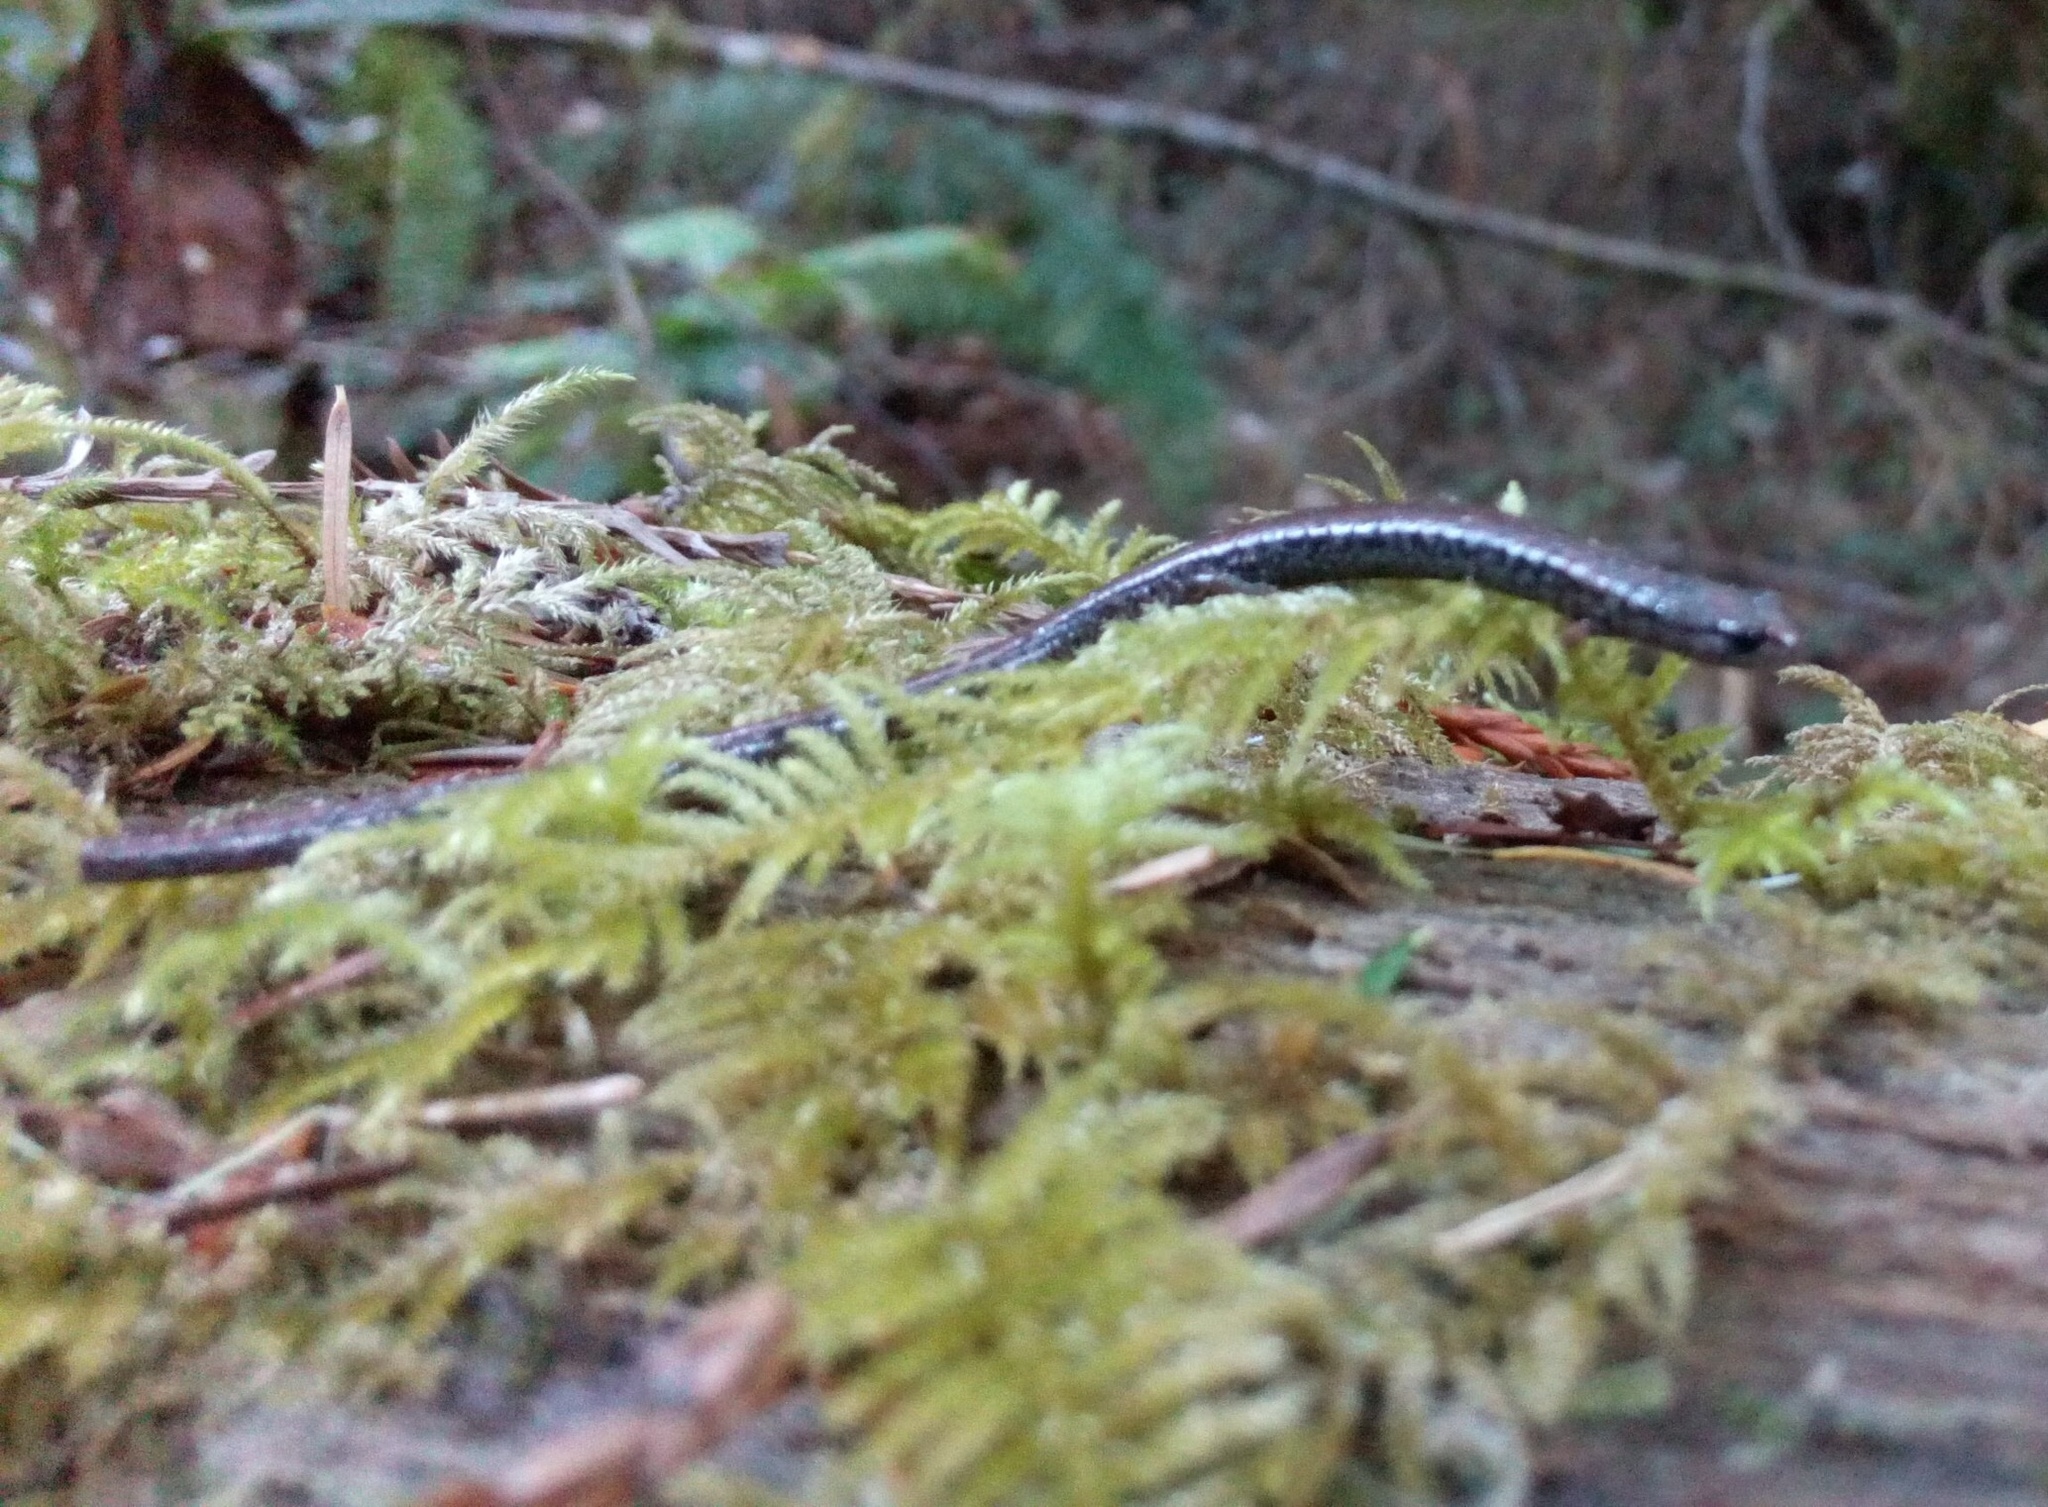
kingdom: Animalia
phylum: Chordata
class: Amphibia
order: Caudata
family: Plethodontidae
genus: Batrachoseps
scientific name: Batrachoseps attenuatus
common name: California slender salamander
